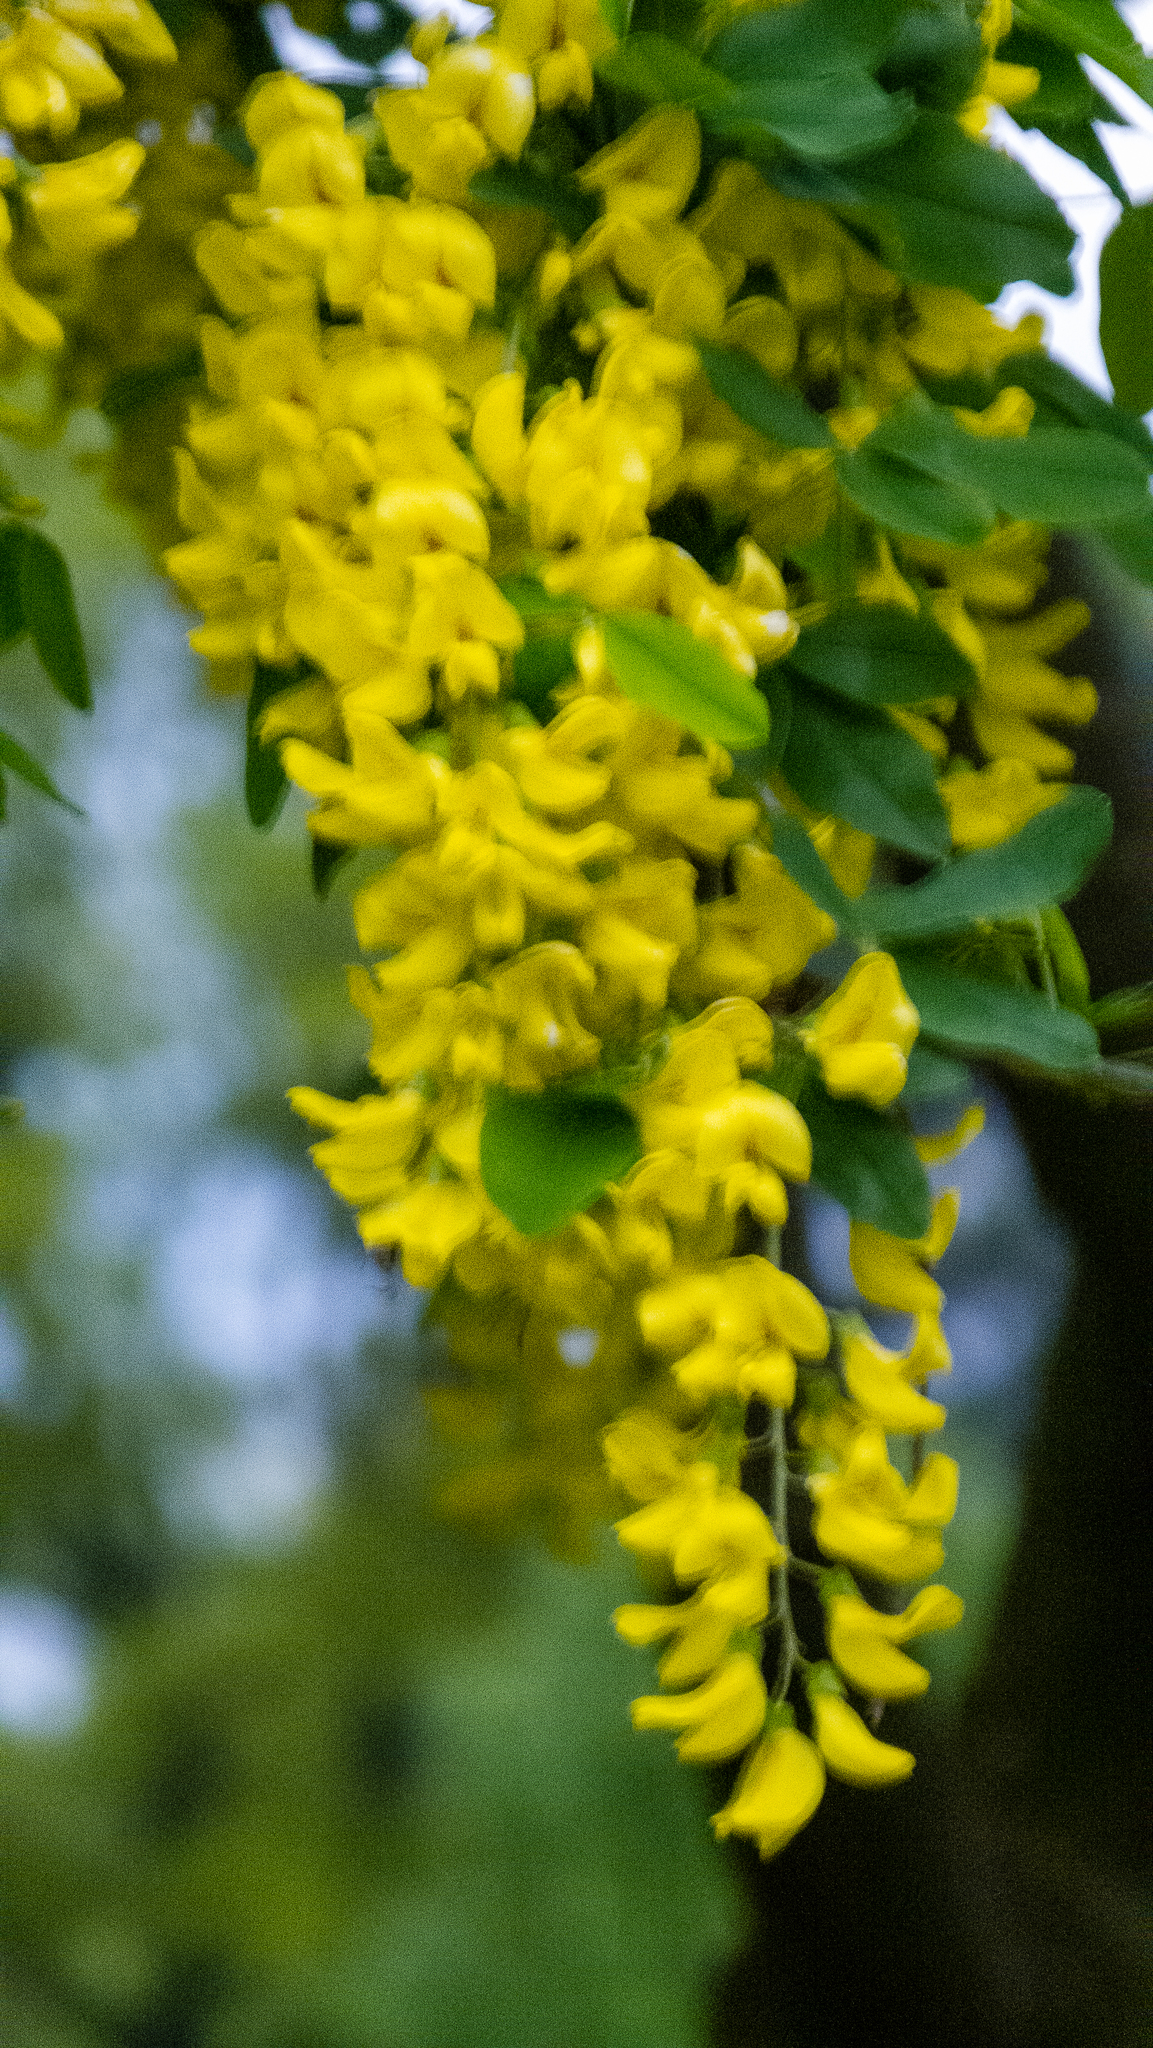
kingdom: Plantae
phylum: Tracheophyta
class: Magnoliopsida
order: Fabales
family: Fabaceae
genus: Laburnum
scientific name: Laburnum anagyroides
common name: Laburnum
